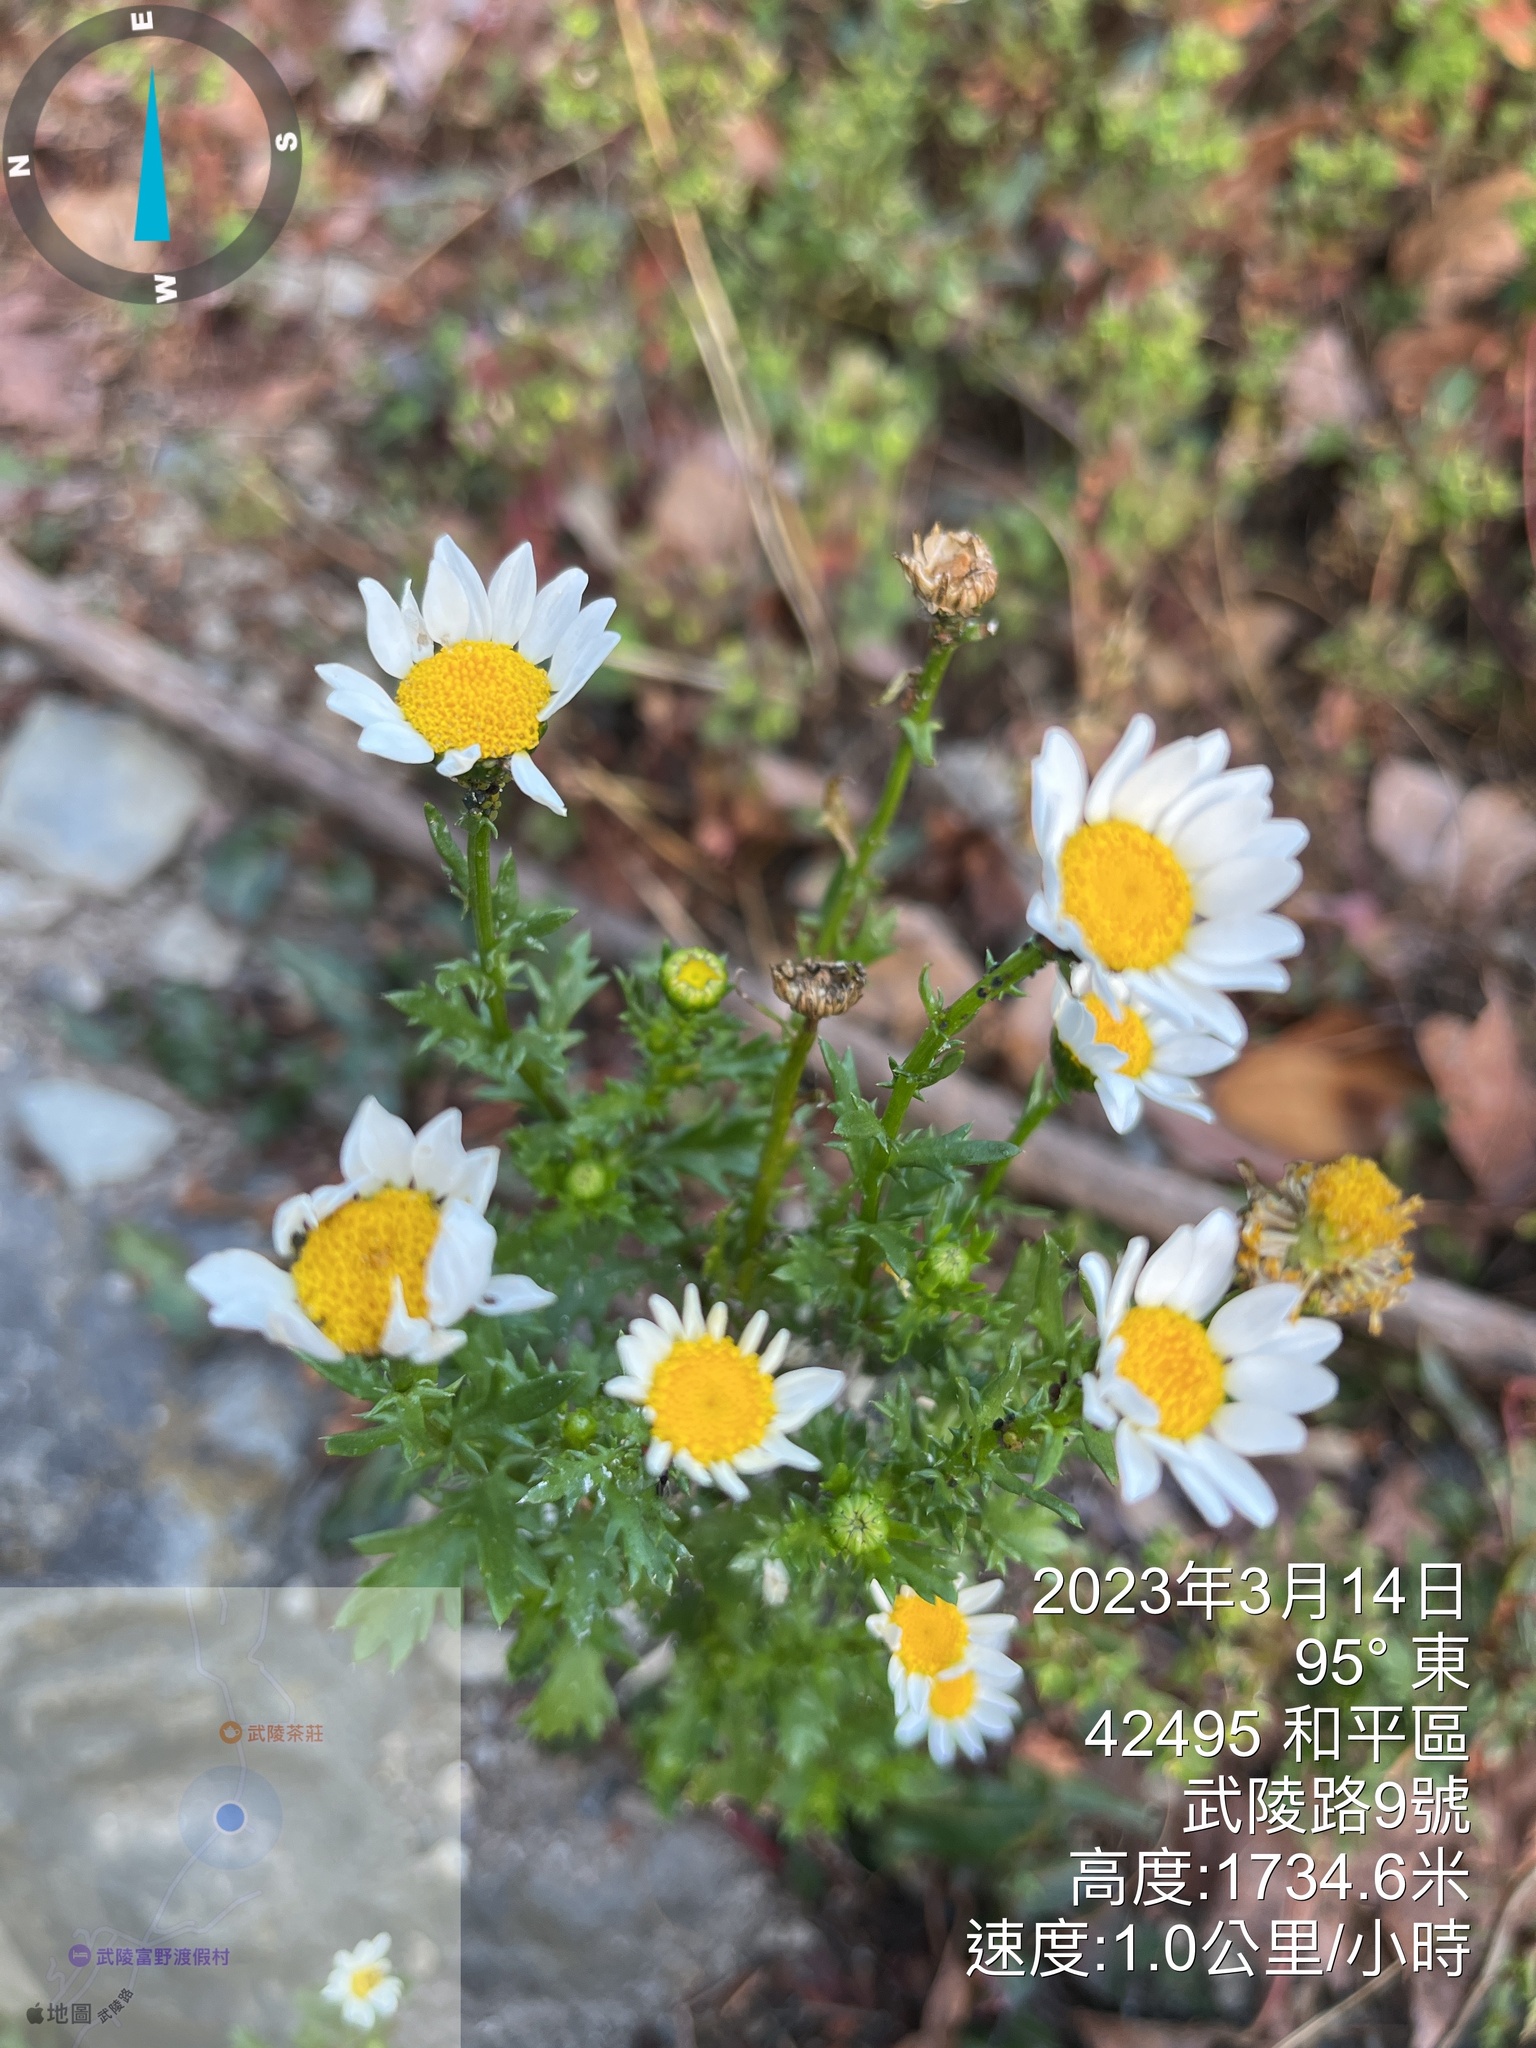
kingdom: Plantae
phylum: Tracheophyta
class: Magnoliopsida
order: Asterales
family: Asteraceae
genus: Leucanthemum
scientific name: Leucanthemum vulgare
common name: Oxeye daisy
